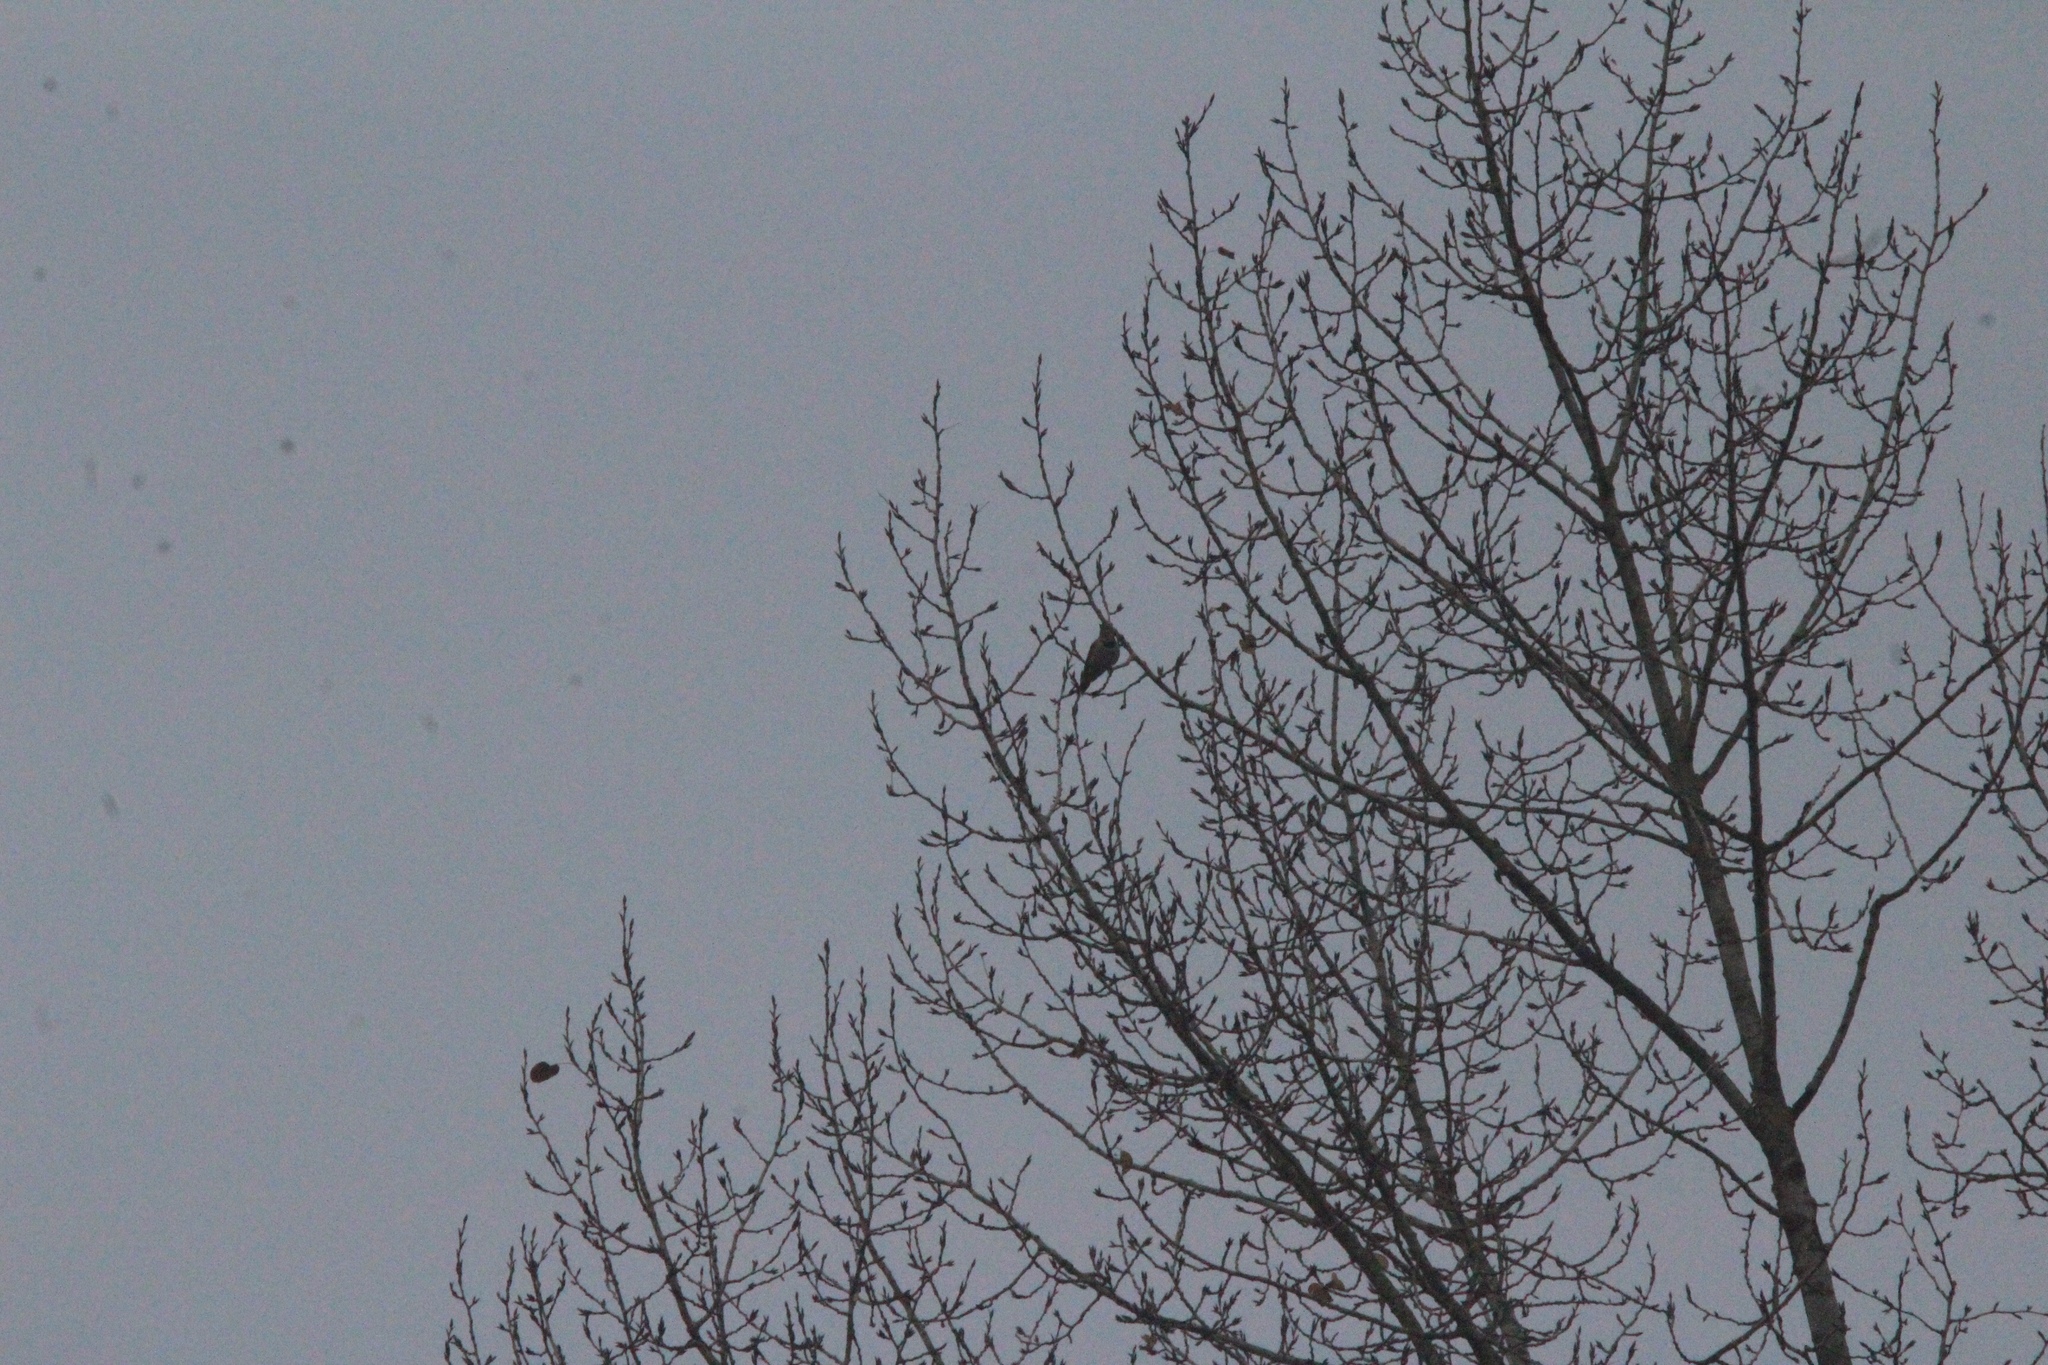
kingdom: Animalia
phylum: Chordata
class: Aves
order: Piciformes
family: Picidae
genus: Colaptes
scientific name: Colaptes auratus
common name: Northern flicker
